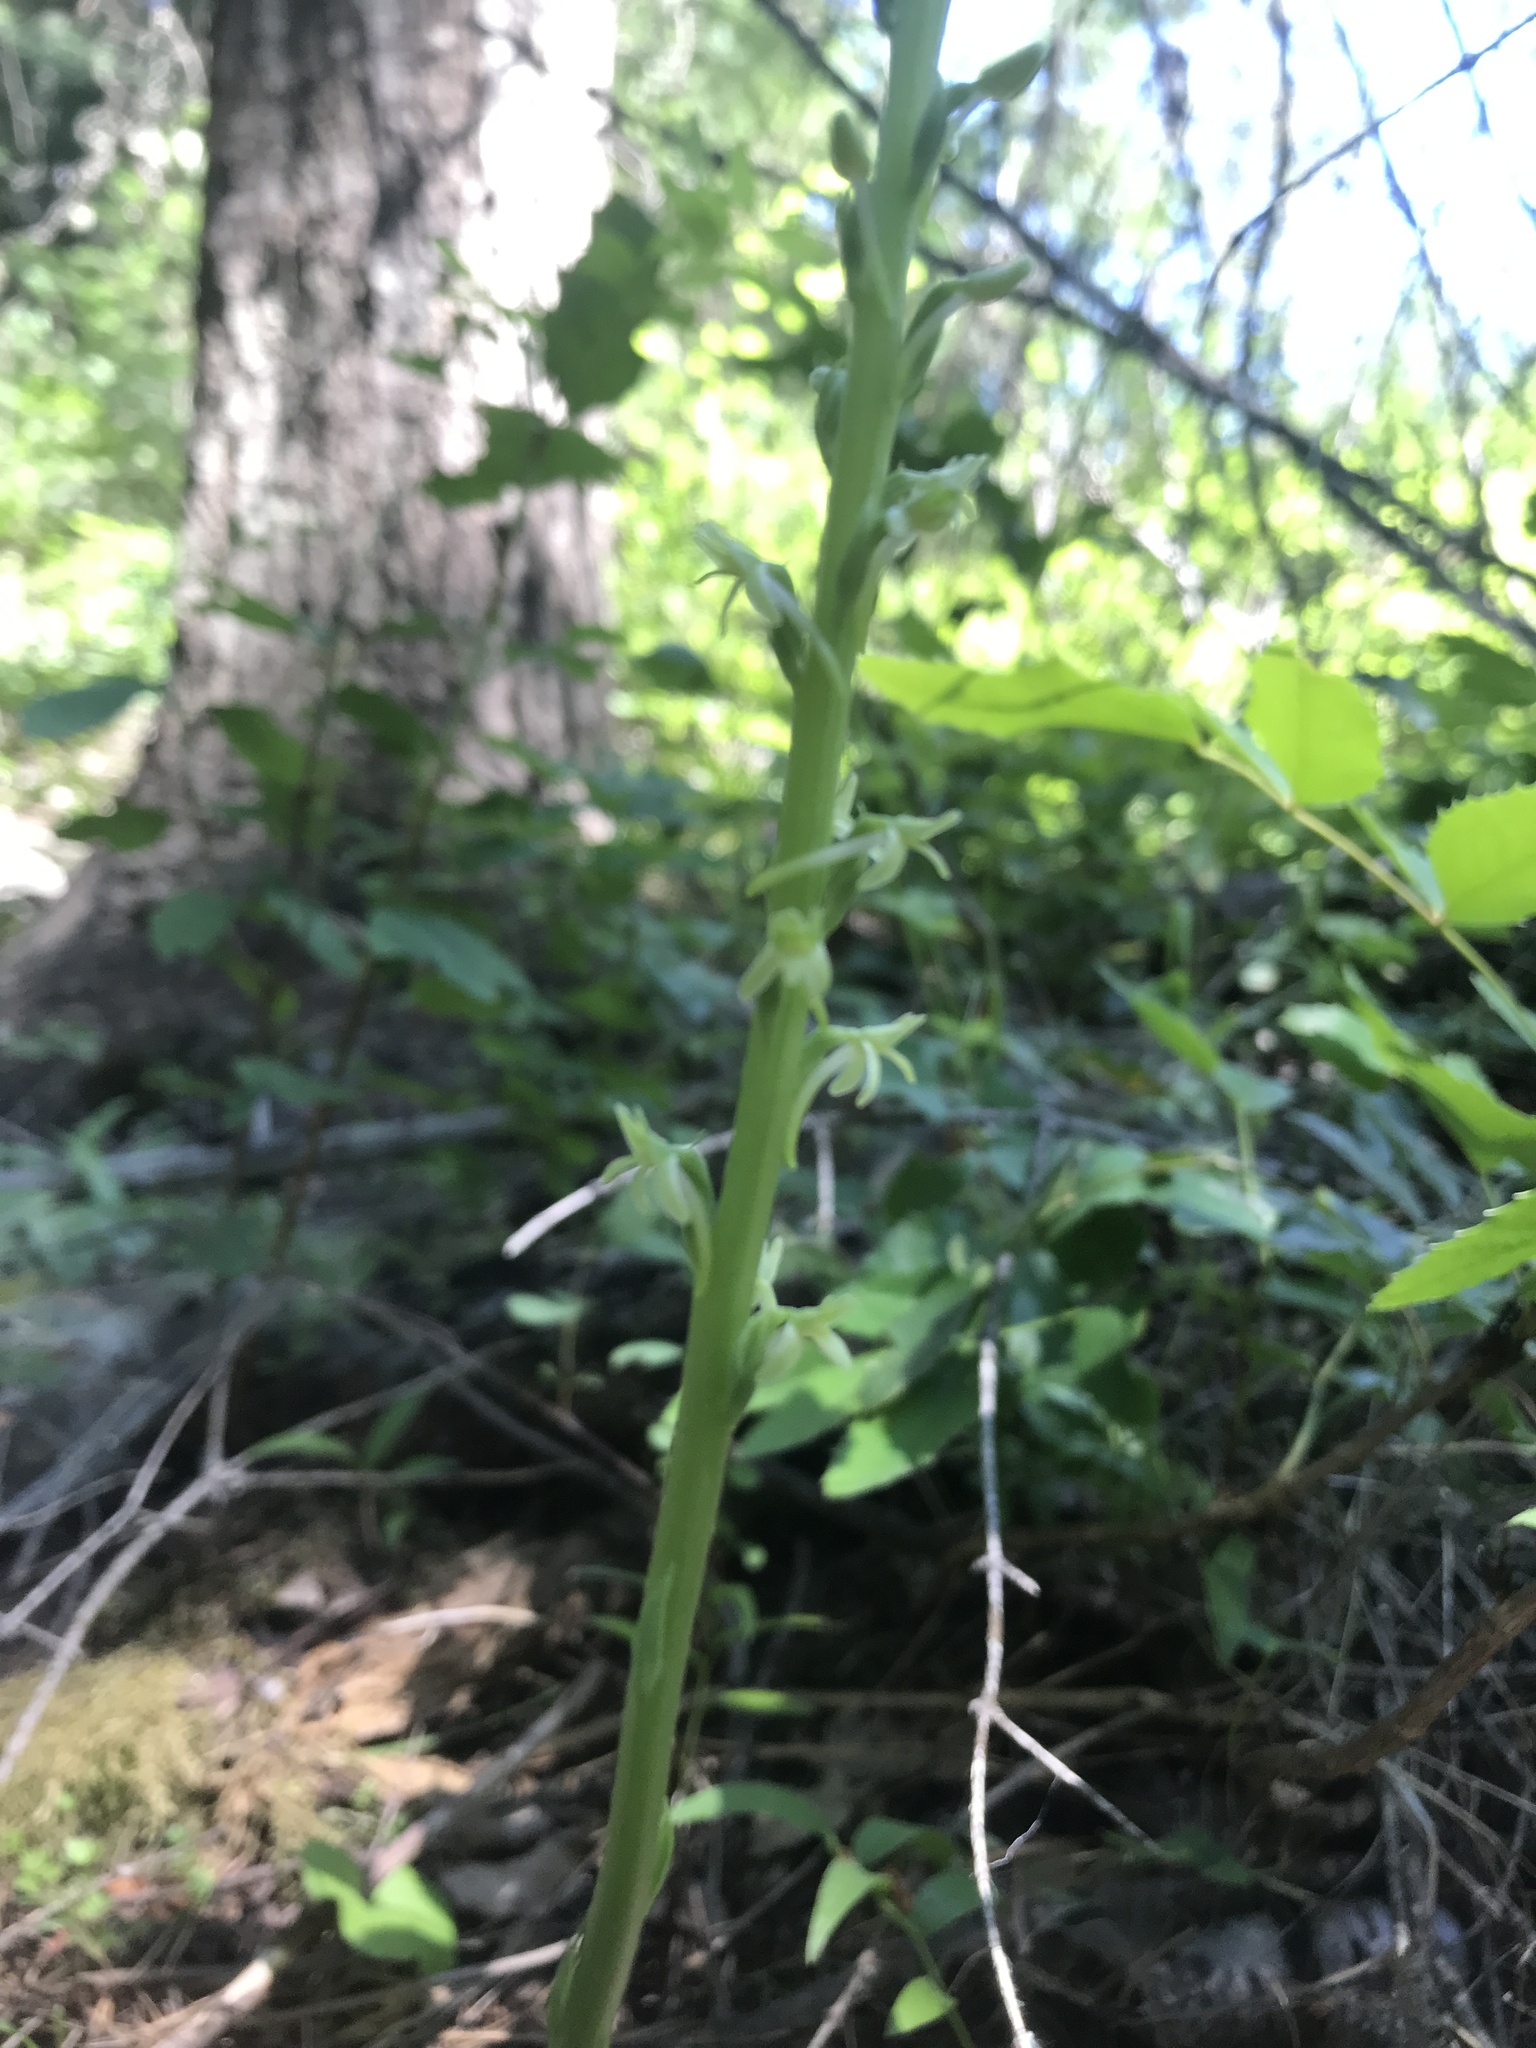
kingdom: Plantae
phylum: Tracheophyta
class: Liliopsida
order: Asparagales
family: Orchidaceae
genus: Platanthera
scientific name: Platanthera elongata
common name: Dense-flowered rein orchid
